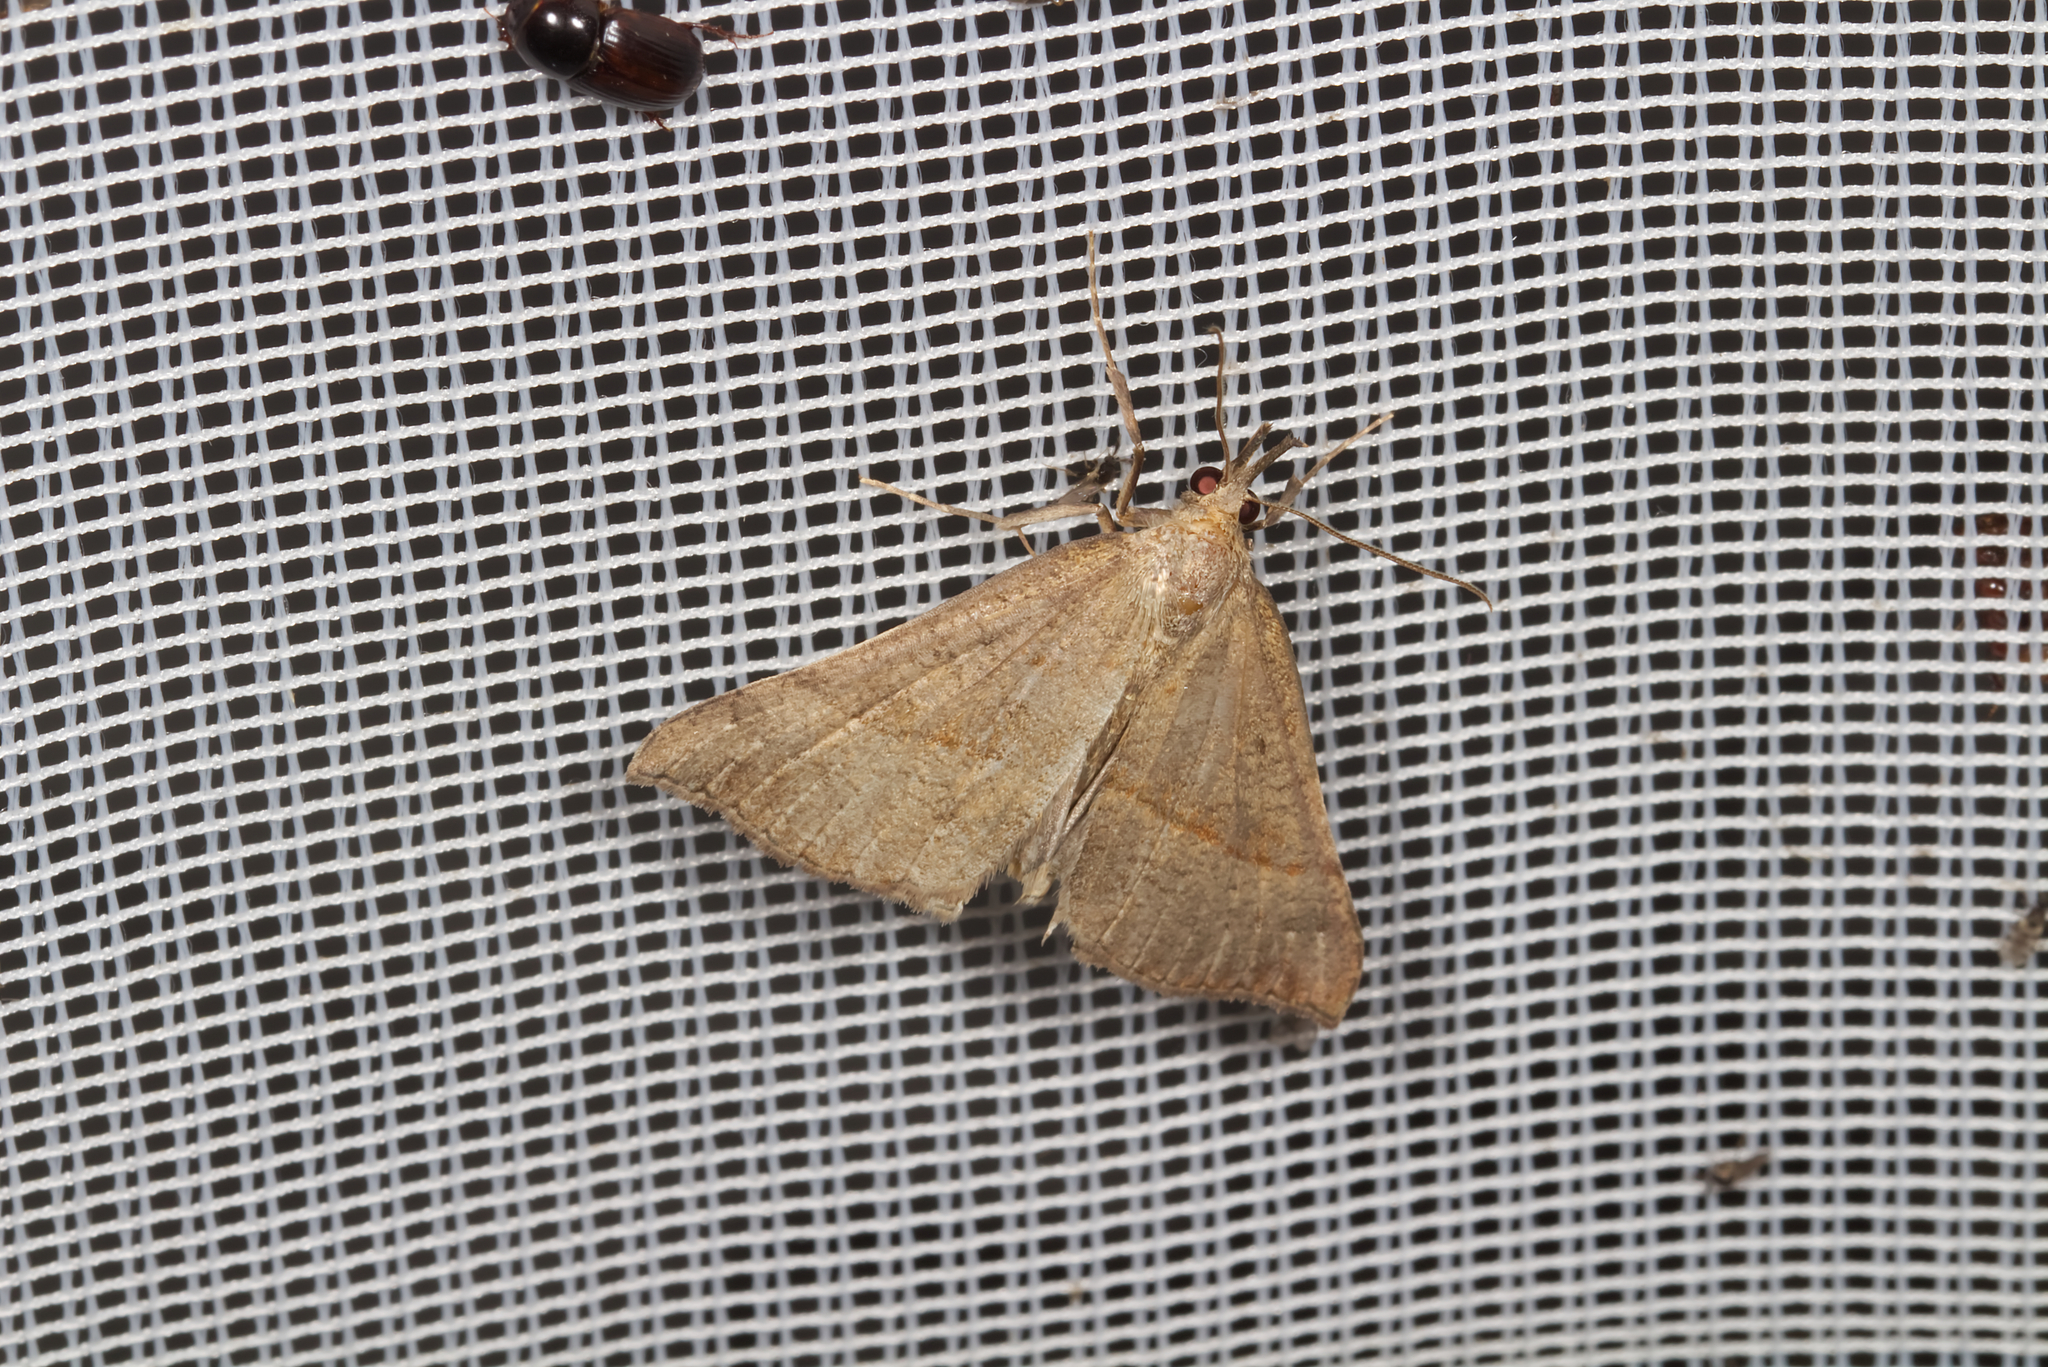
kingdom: Animalia
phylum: Arthropoda
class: Insecta
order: Lepidoptera
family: Erebidae
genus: Hypena
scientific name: Hypena proboscidalis
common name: Snout
